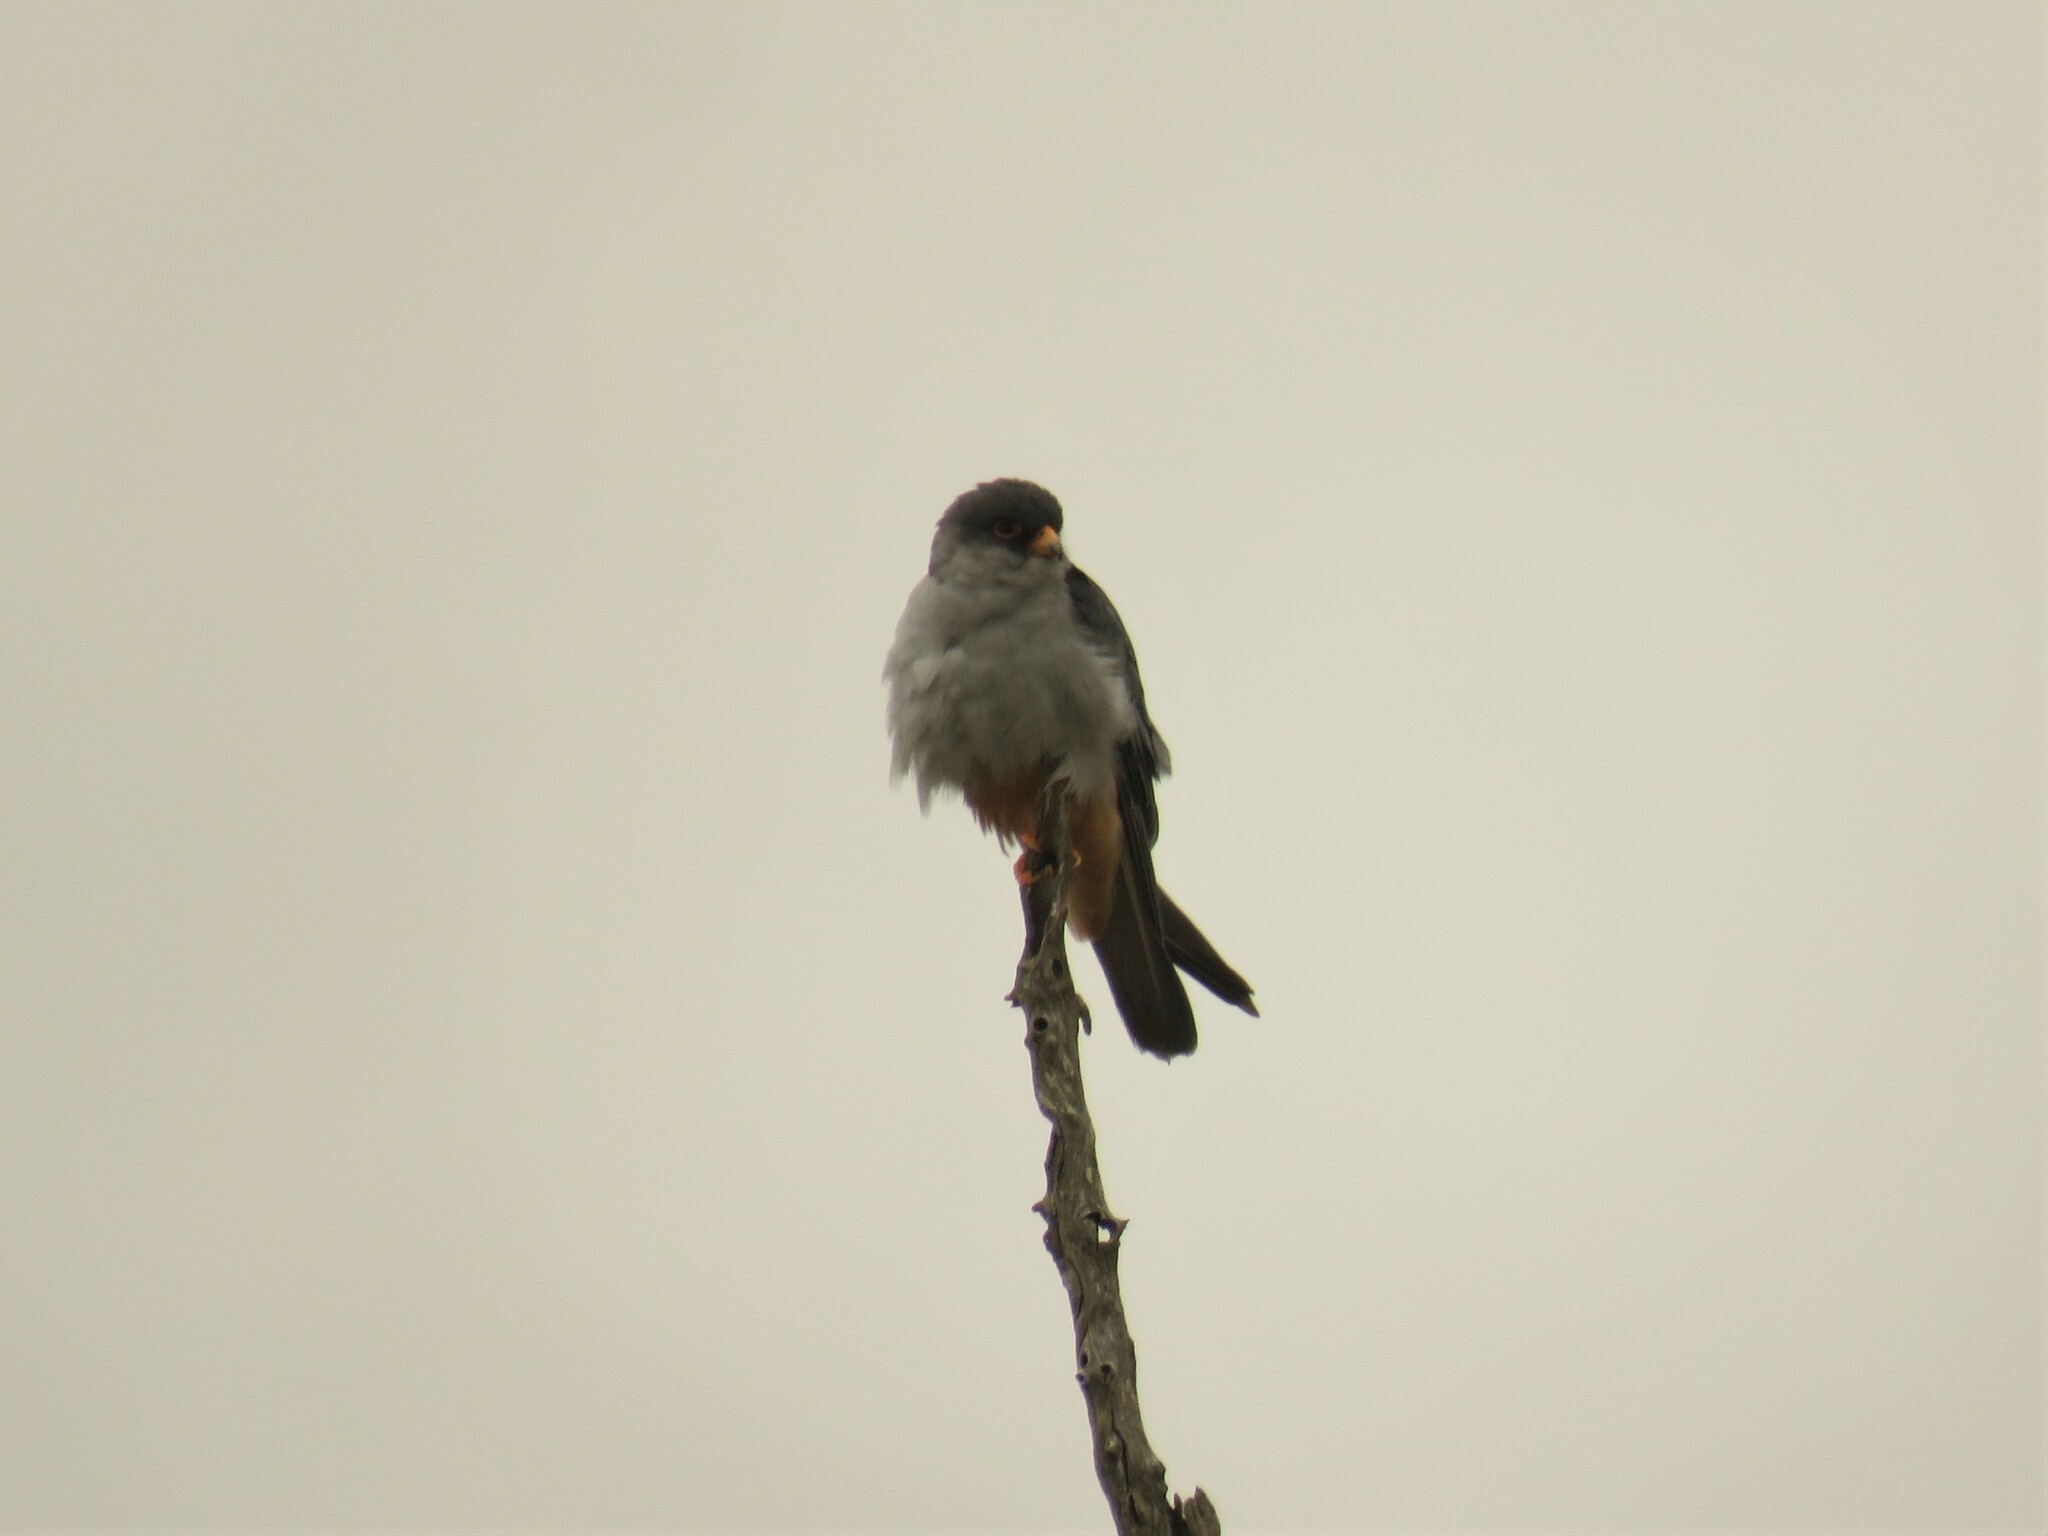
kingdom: Animalia
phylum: Chordata
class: Aves
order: Falconiformes
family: Falconidae
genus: Falco
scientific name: Falco amurensis
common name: Amur falcon
